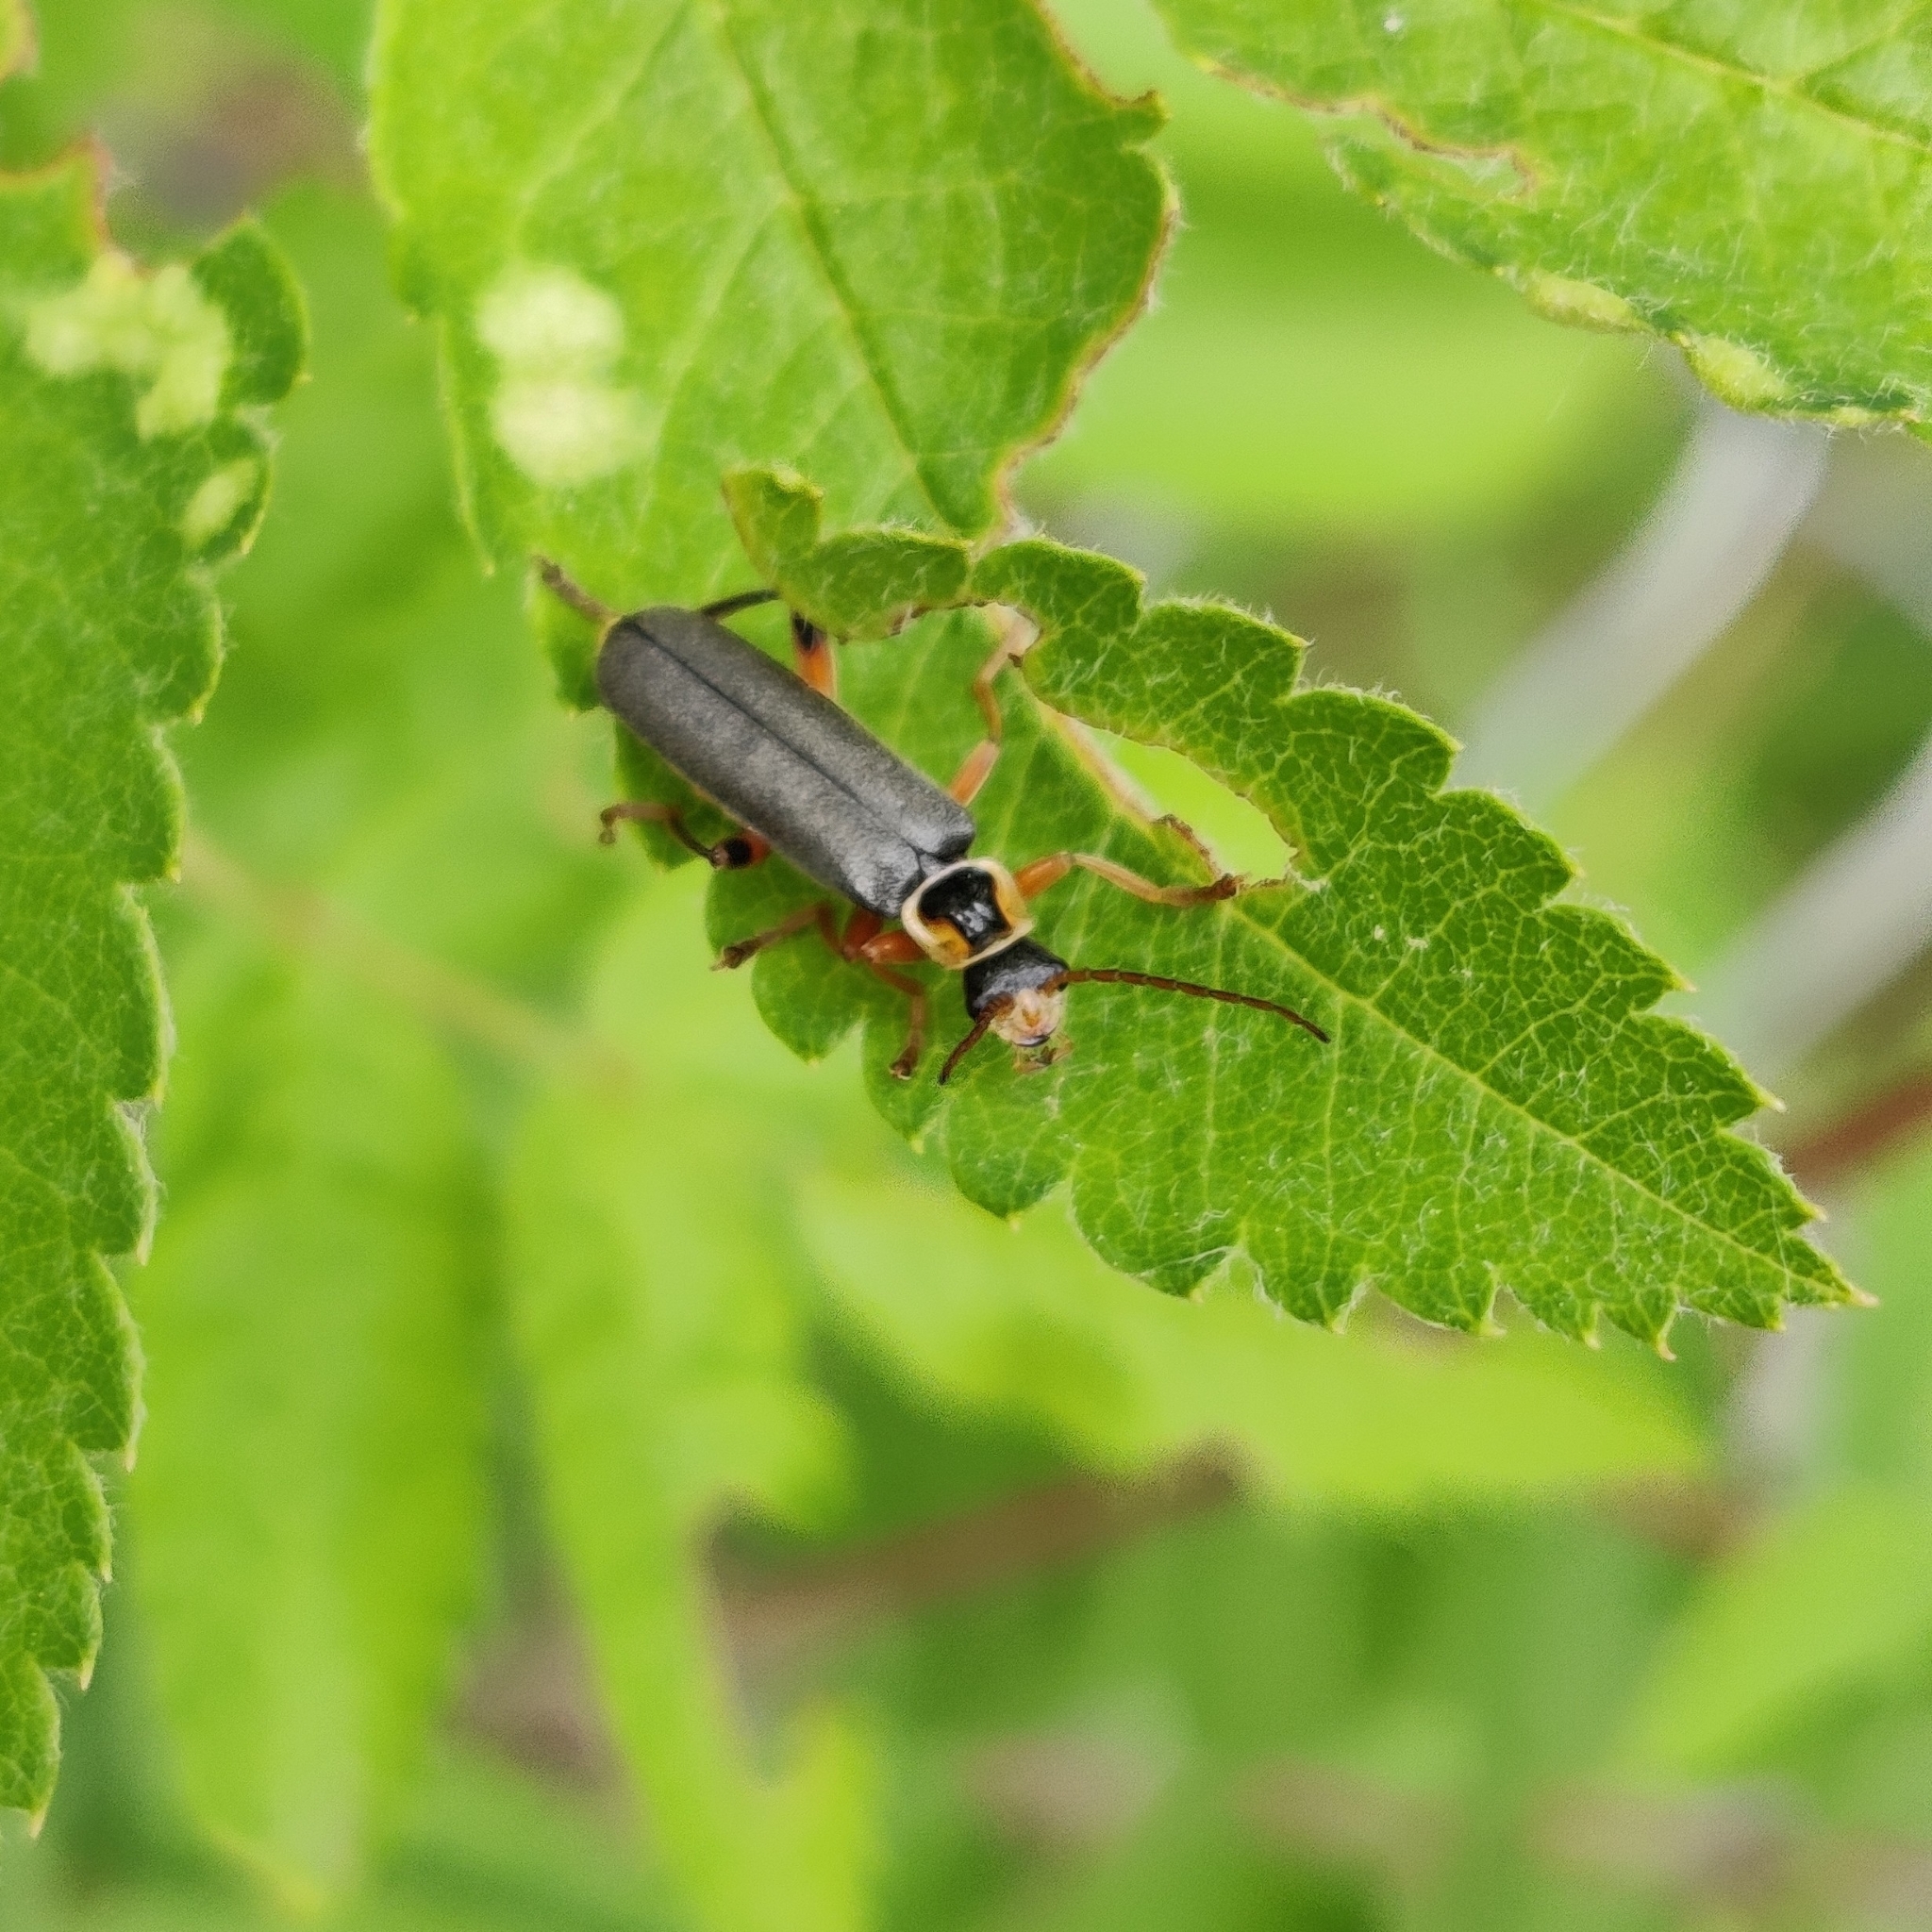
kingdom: Animalia
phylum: Arthropoda
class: Insecta
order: Coleoptera
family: Cantharidae
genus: Cantharis
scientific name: Cantharis nigricans
